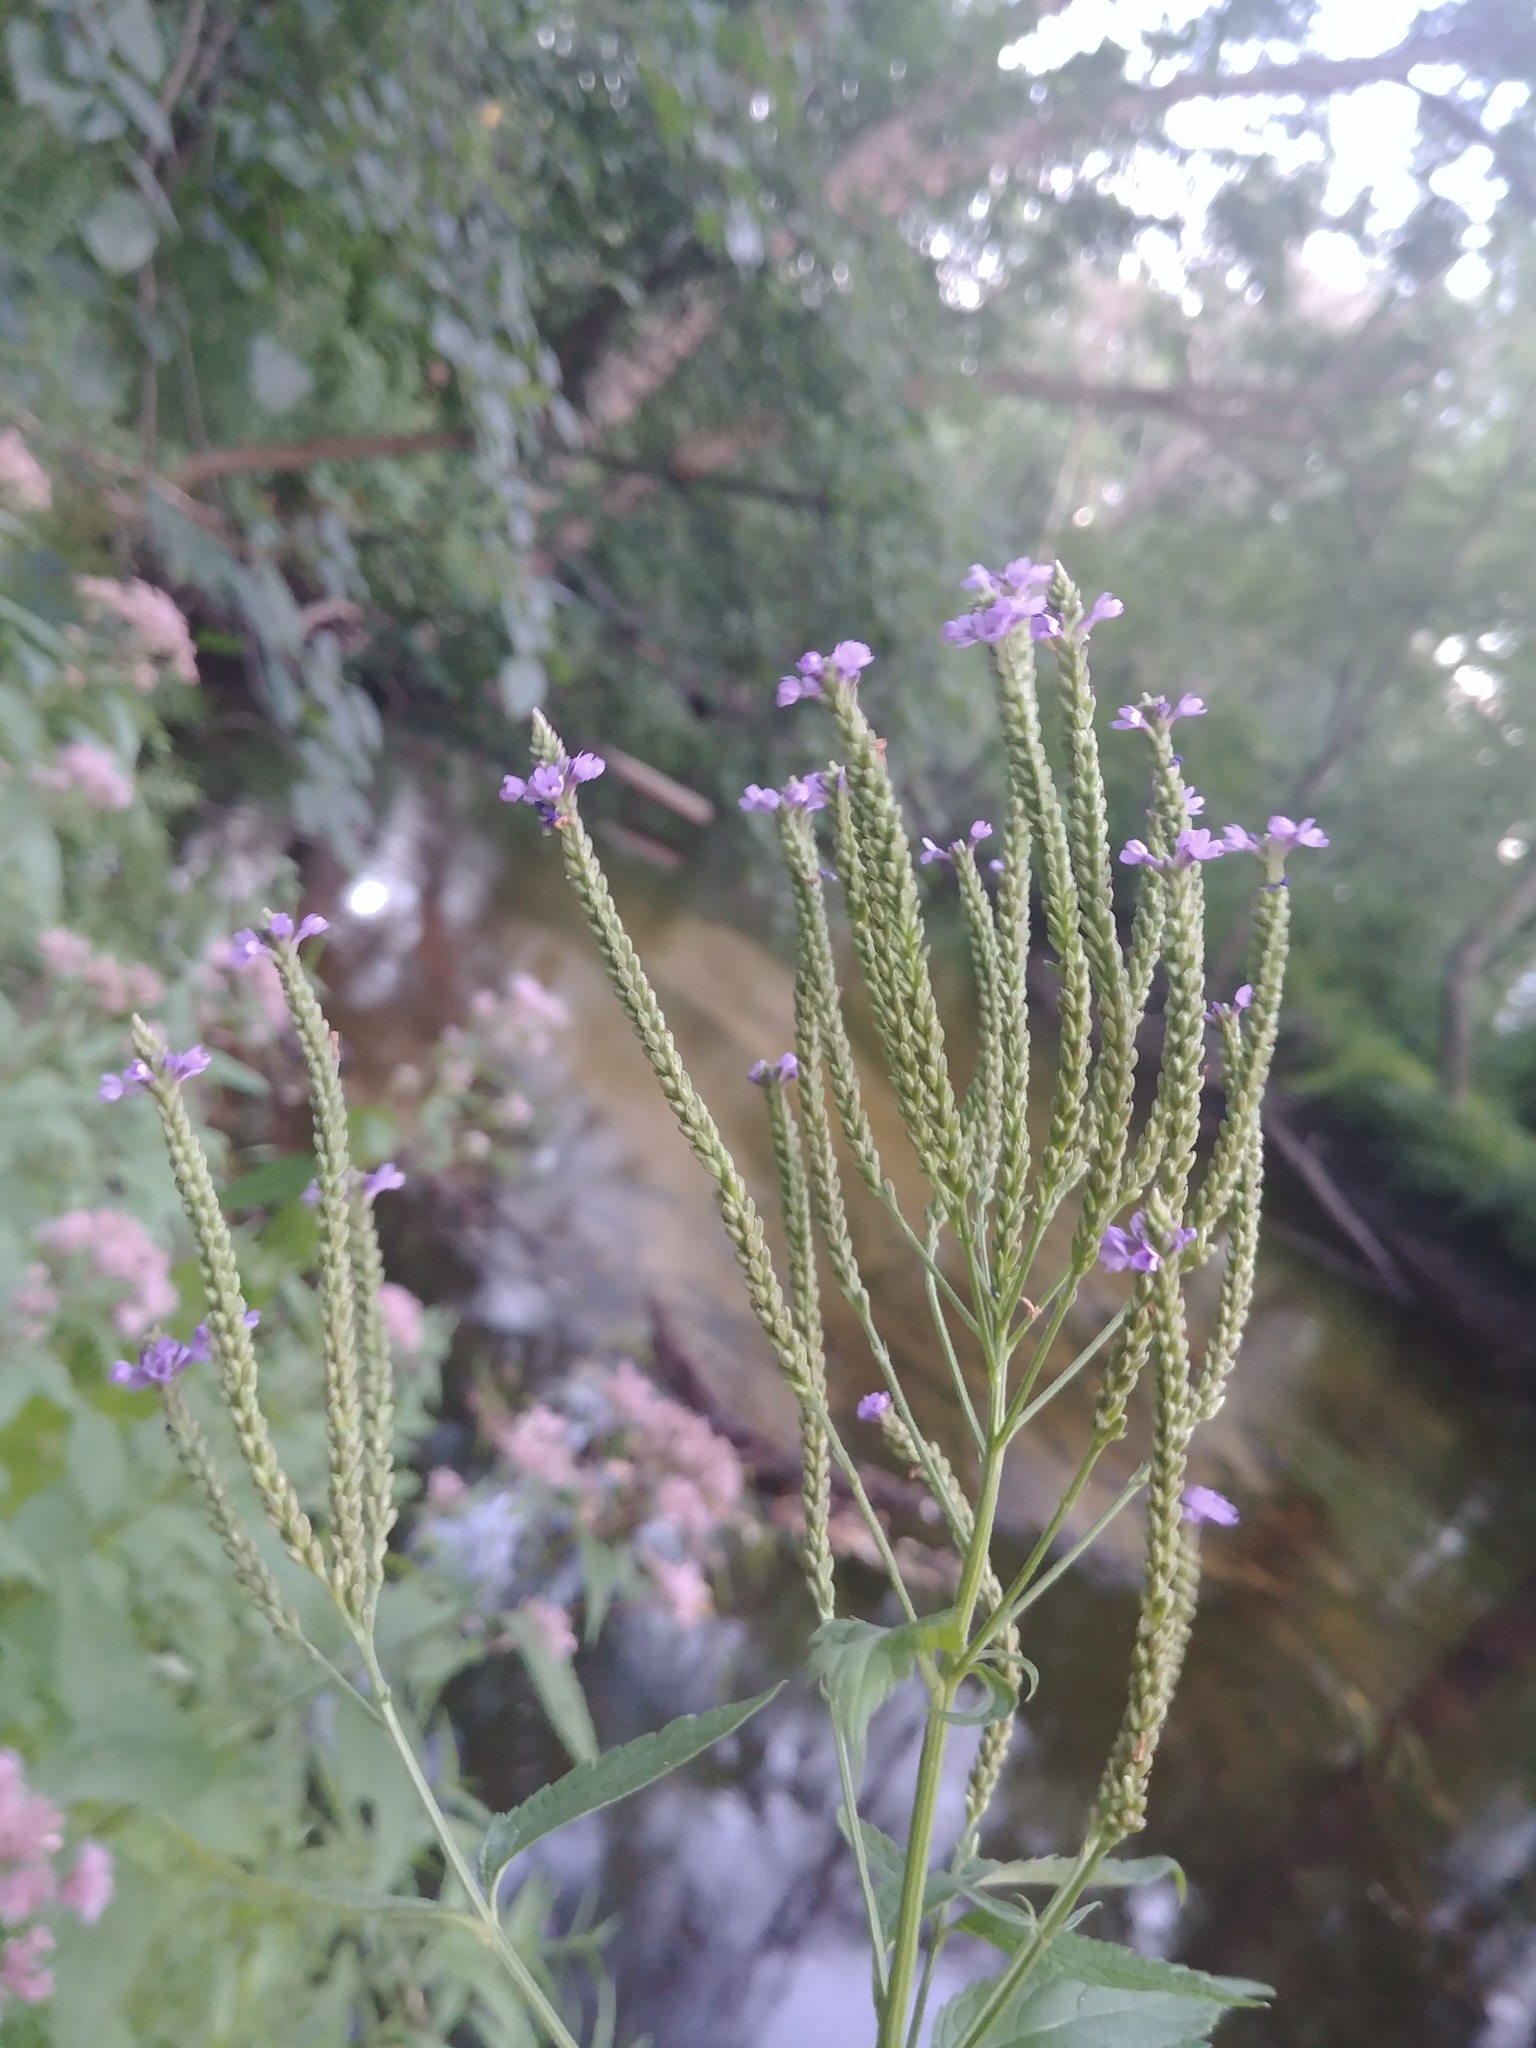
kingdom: Plantae
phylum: Tracheophyta
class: Magnoliopsida
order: Lamiales
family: Verbenaceae
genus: Verbena
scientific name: Verbena hastata
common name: American blue vervain
